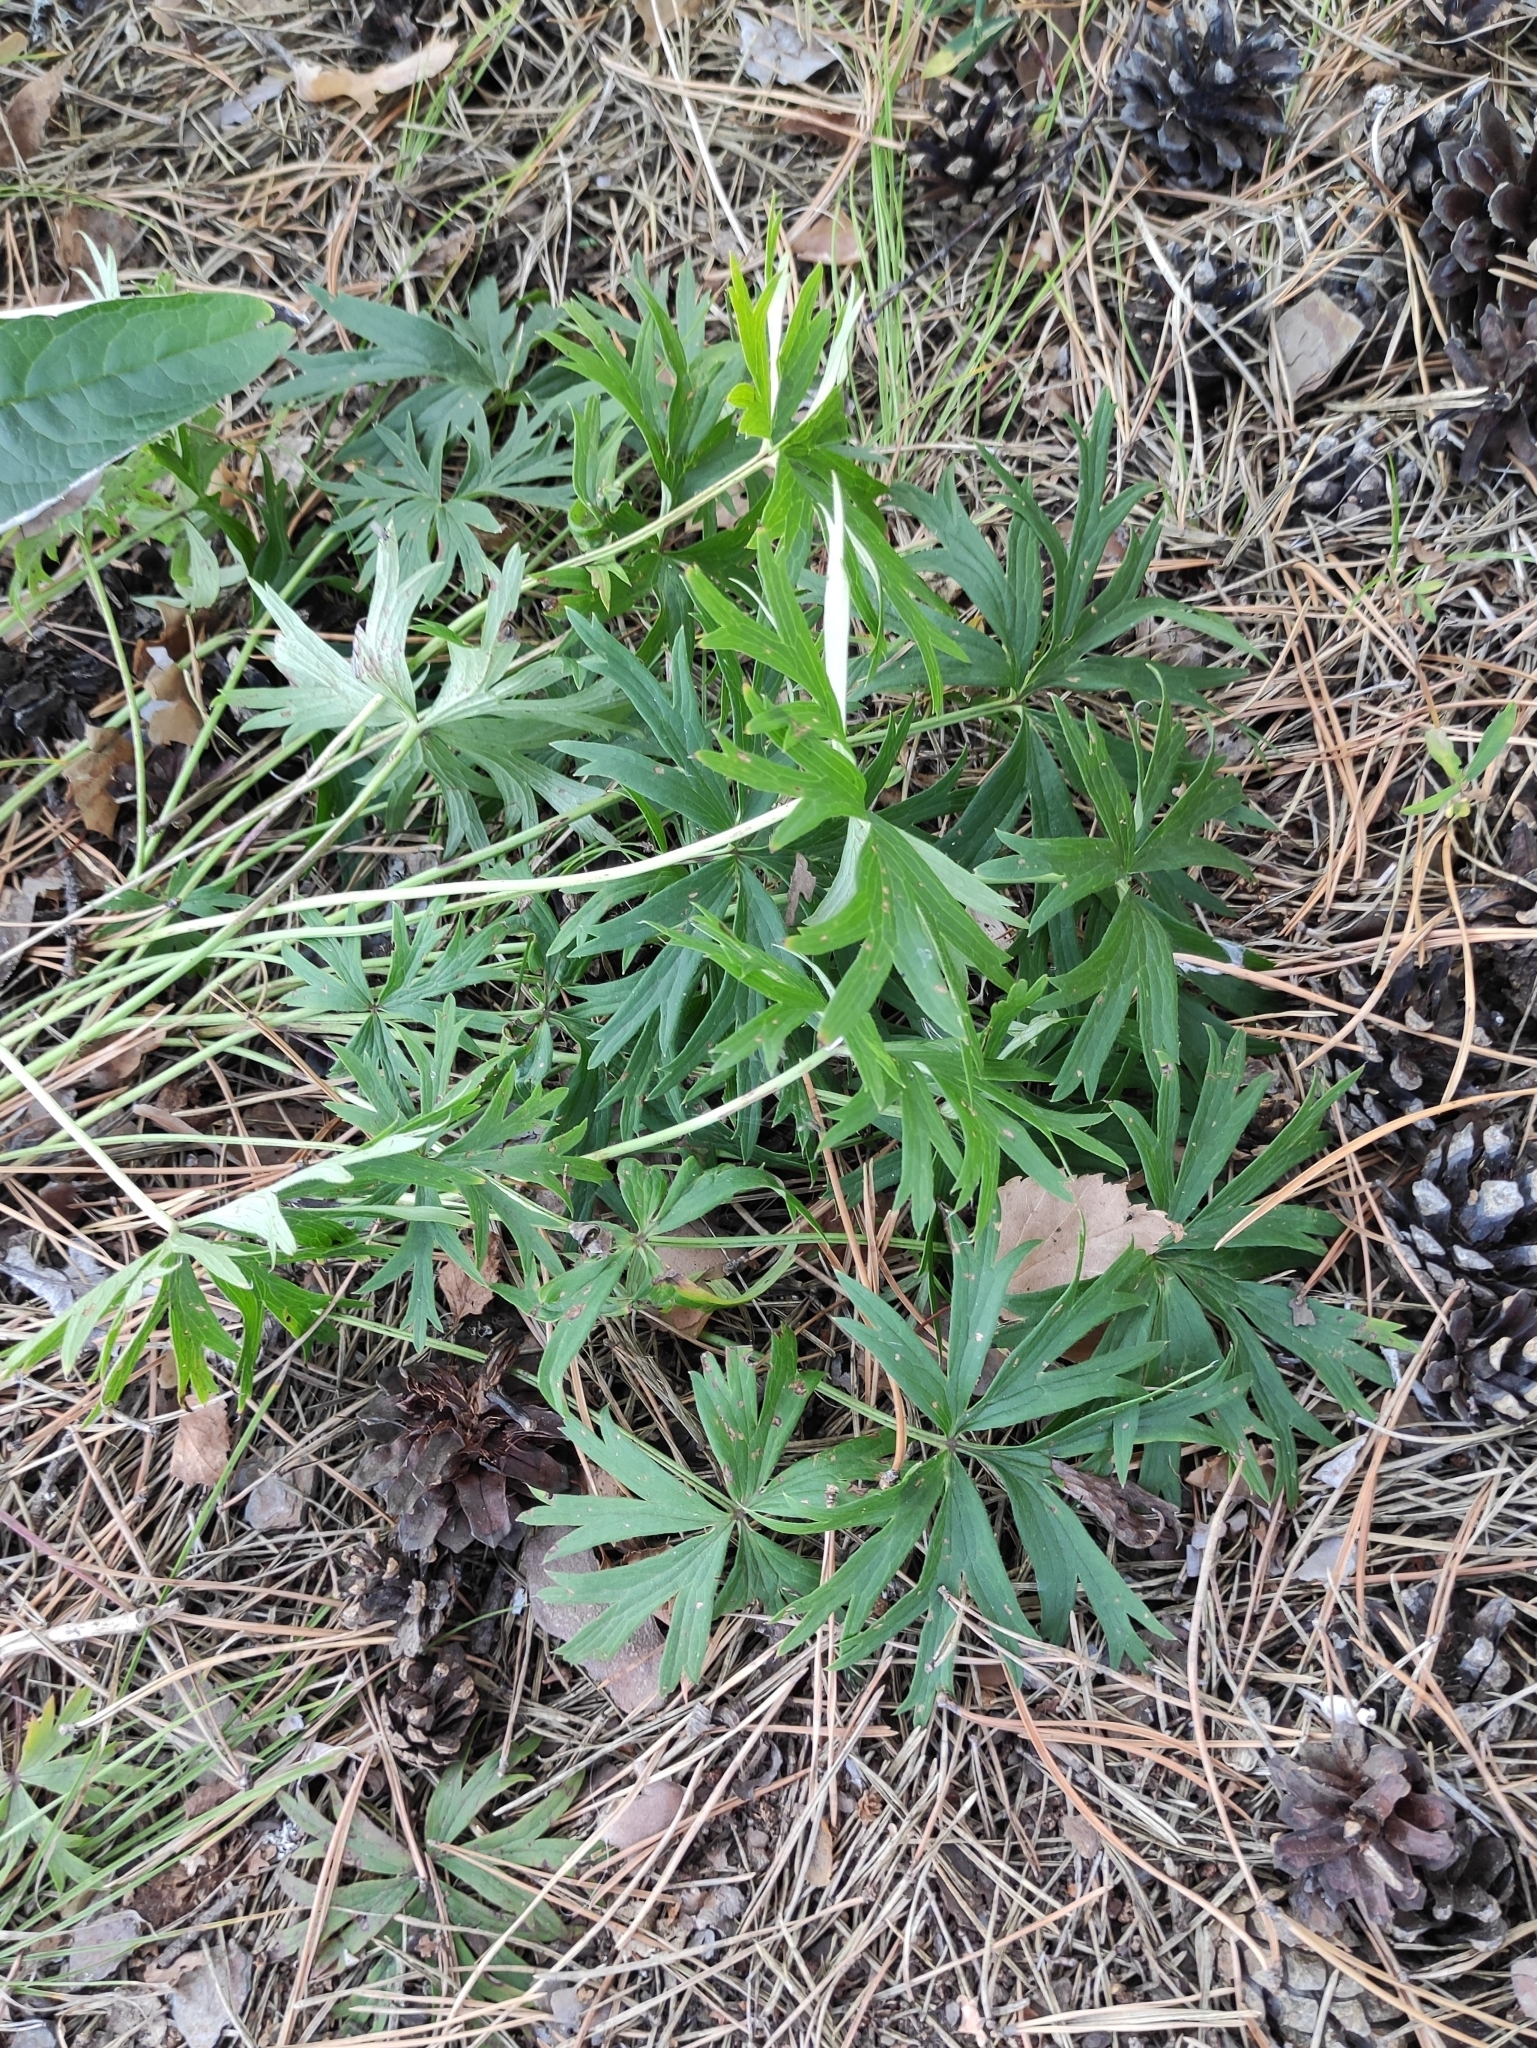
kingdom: Plantae
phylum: Tracheophyta
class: Magnoliopsida
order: Ranunculales
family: Ranunculaceae
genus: Pulsatilla
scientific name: Pulsatilla patens
